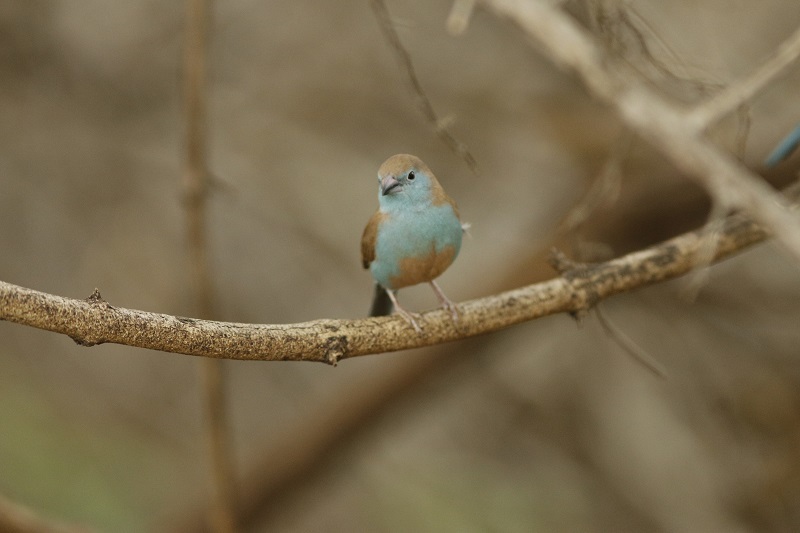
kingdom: Animalia
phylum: Chordata
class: Aves
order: Passeriformes
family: Estrildidae
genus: Uraeginthus
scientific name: Uraeginthus angolensis
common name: Blue waxbill
